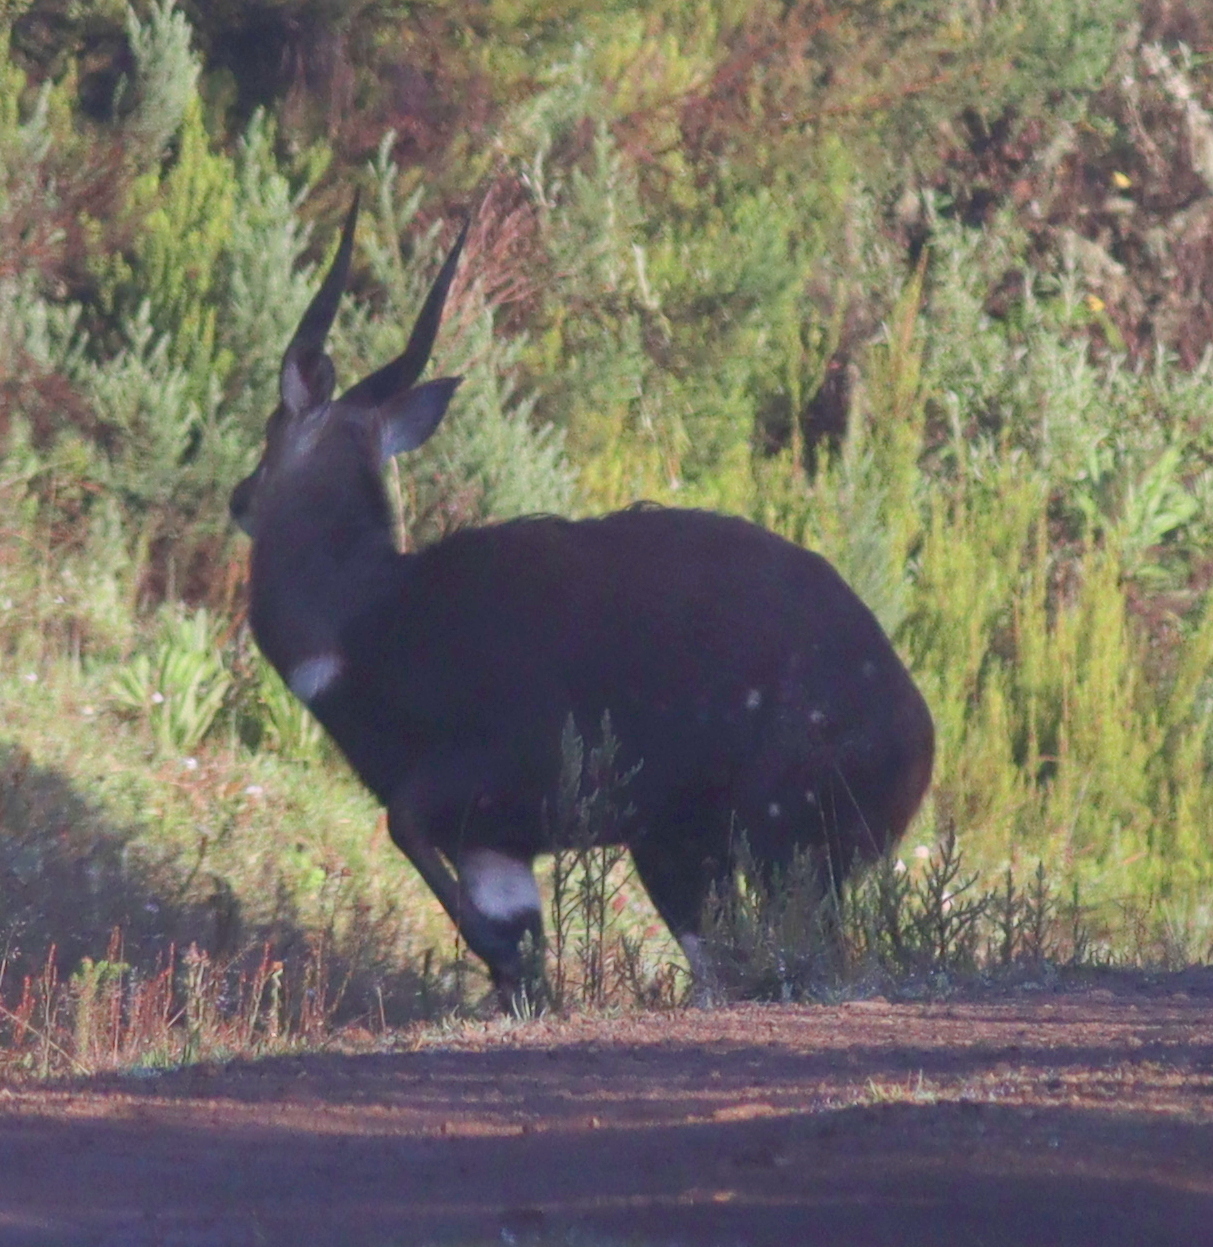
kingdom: Animalia
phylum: Chordata
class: Mammalia
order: Artiodactyla
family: Bovidae
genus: Tragelaphus
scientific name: Tragelaphus scriptus
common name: Bushbuck
